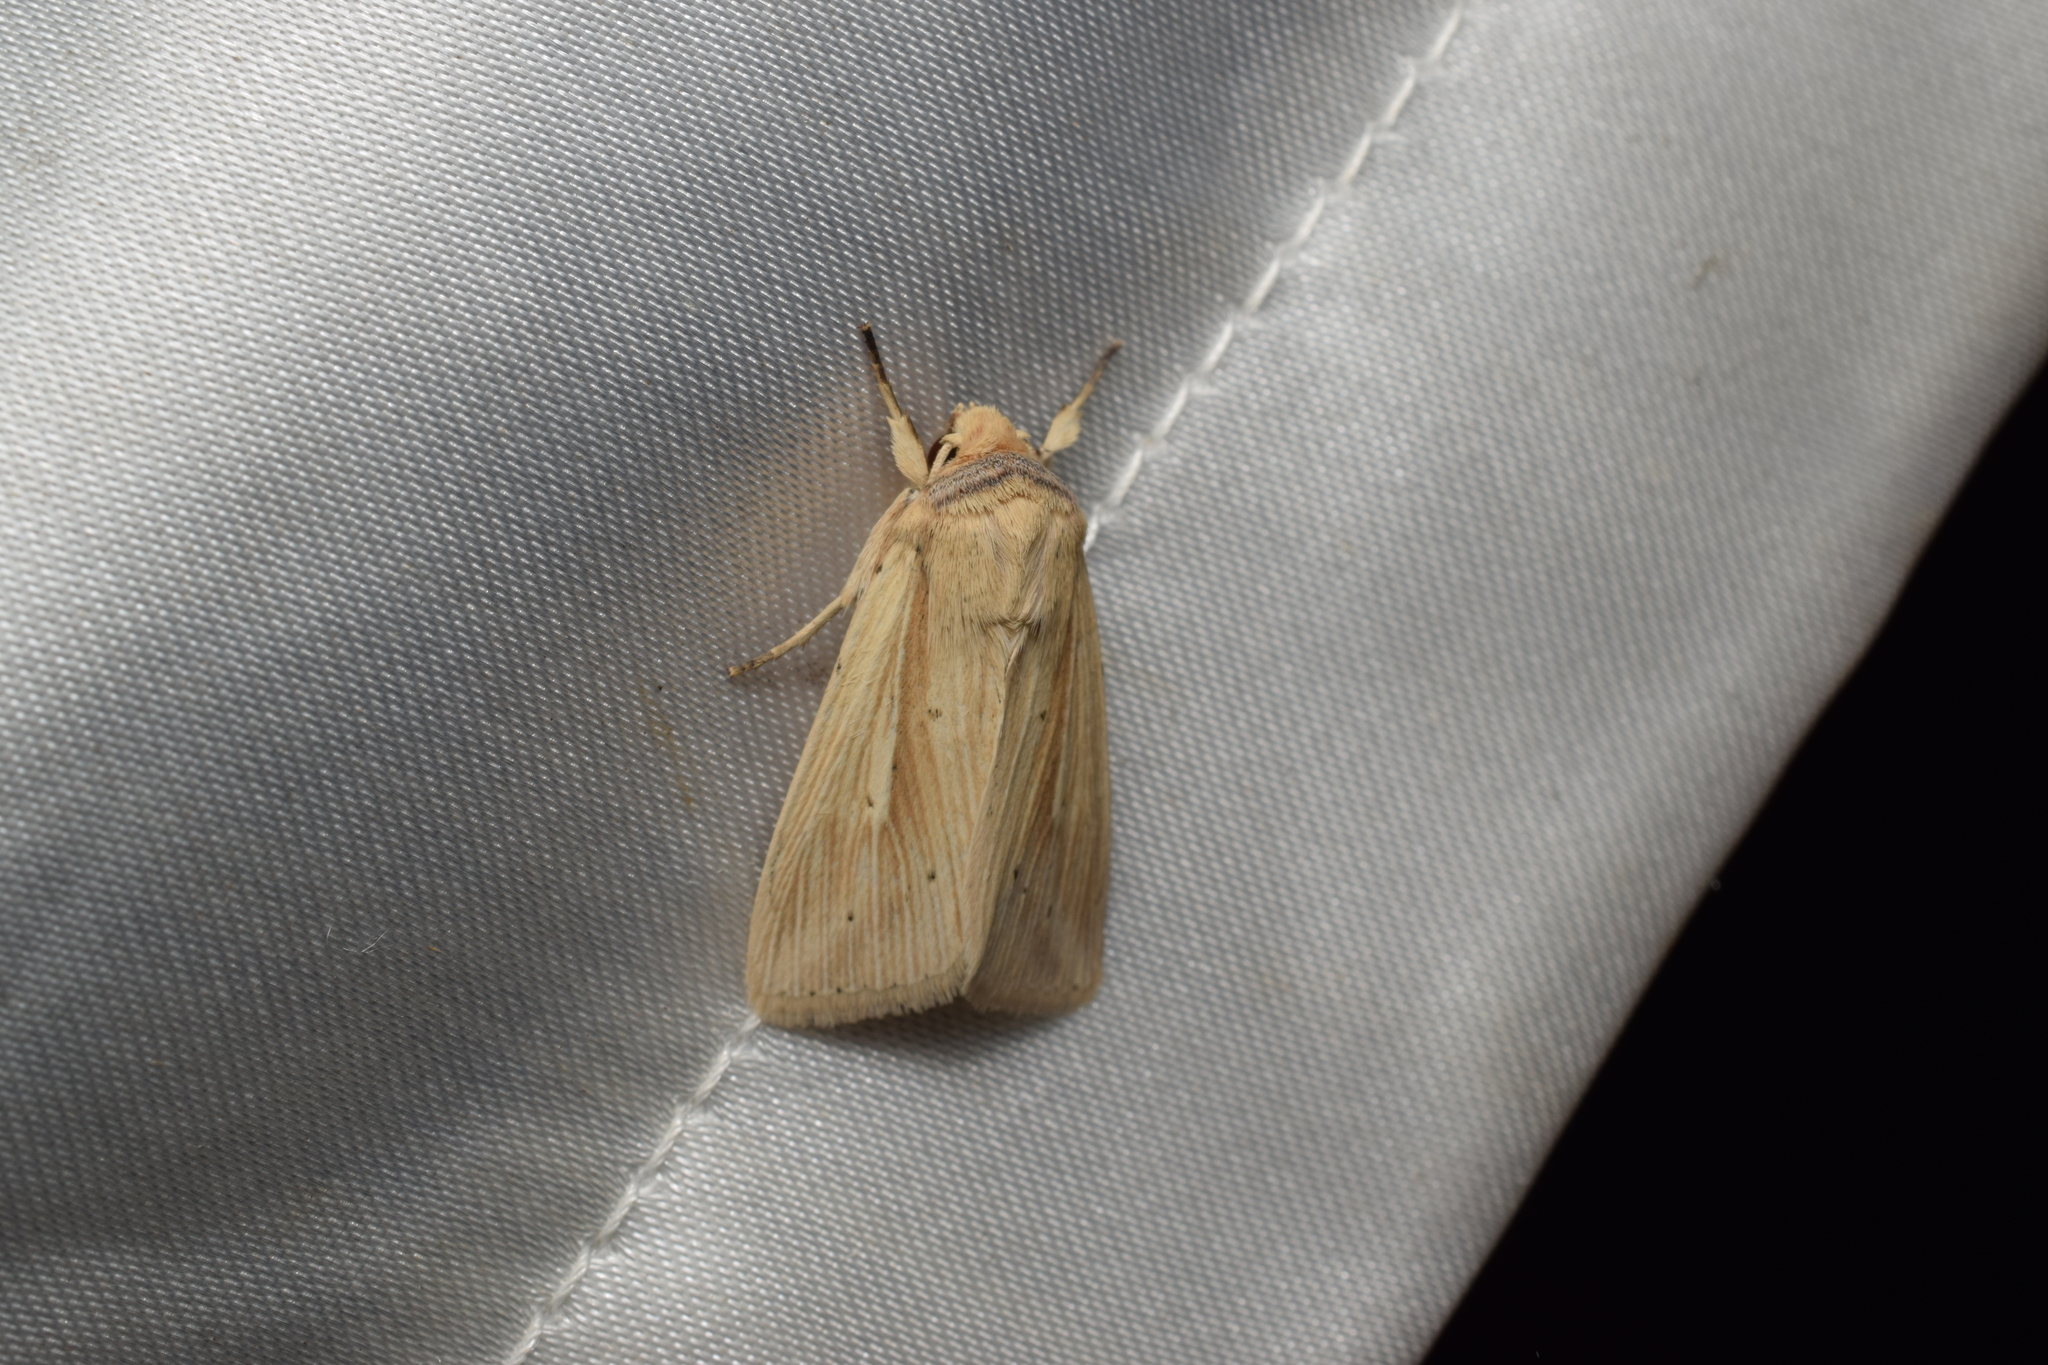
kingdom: Animalia
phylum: Arthropoda
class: Insecta
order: Lepidoptera
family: Noctuidae
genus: Mythimna
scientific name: Mythimna radiata
